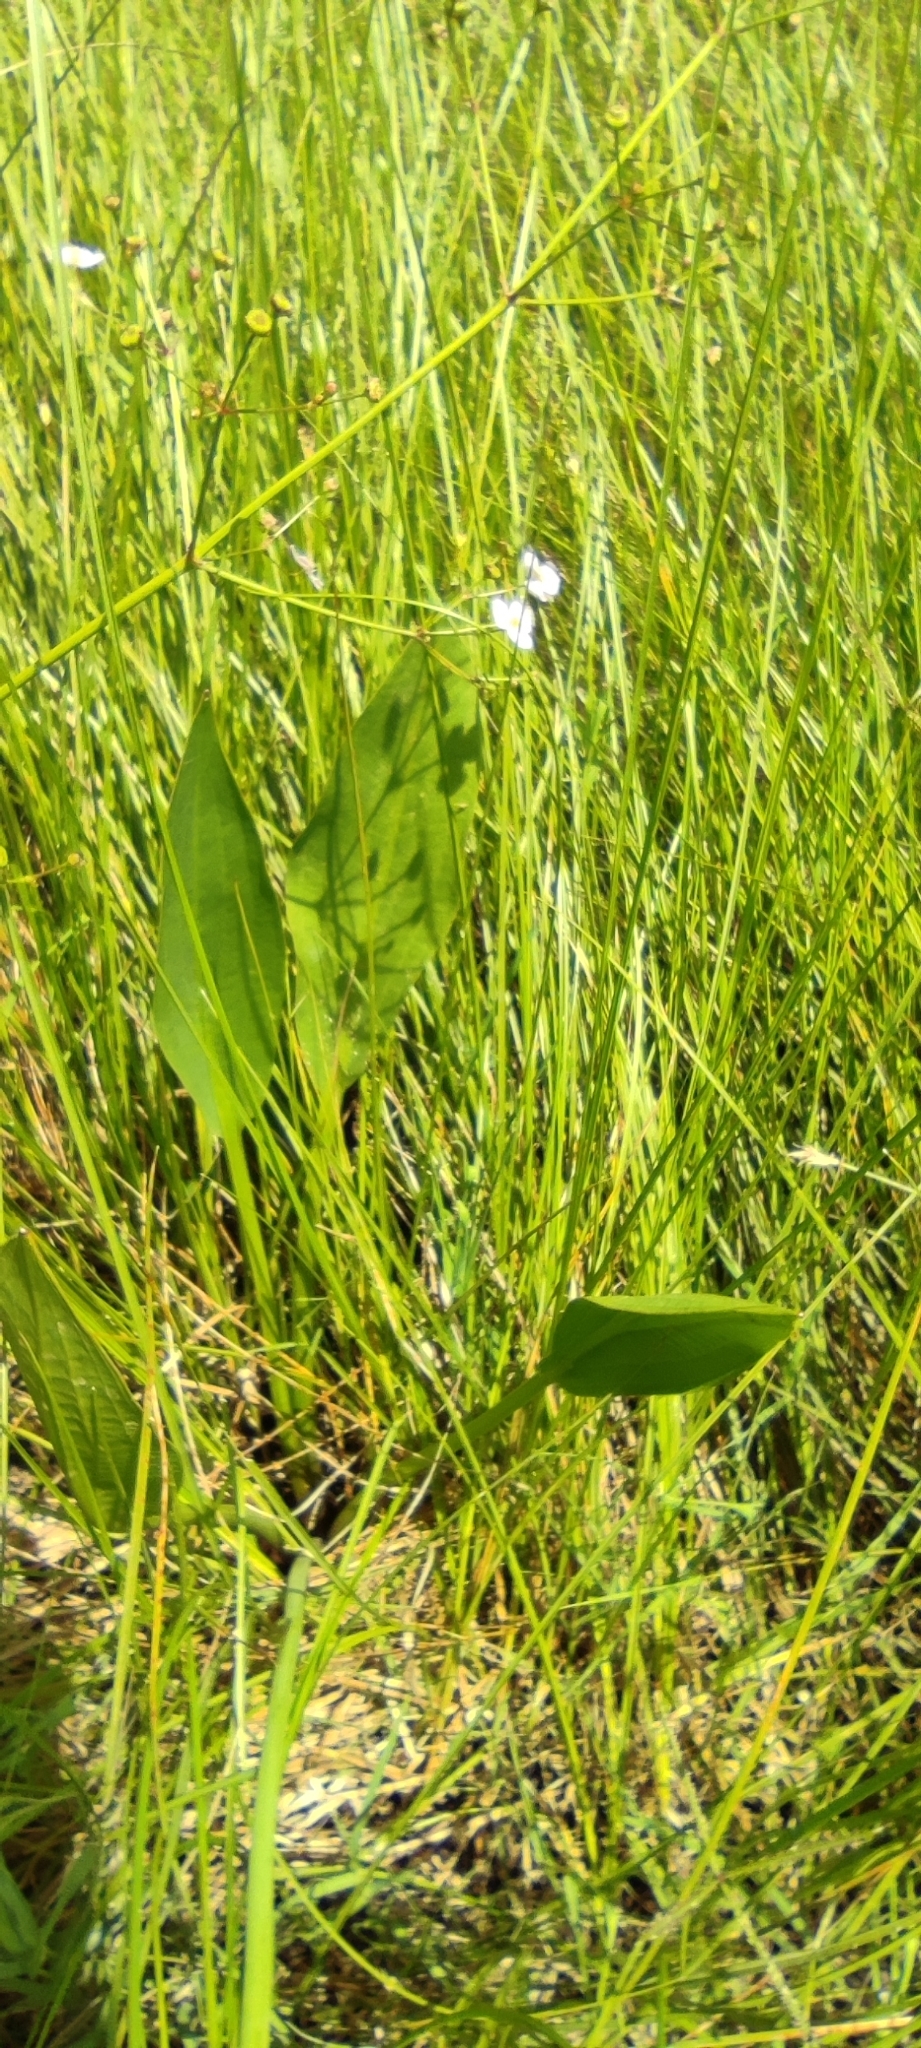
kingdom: Plantae
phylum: Tracheophyta
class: Liliopsida
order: Alismatales
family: Alismataceae
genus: Alisma
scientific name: Alisma plantago-aquatica
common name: Water-plantain
